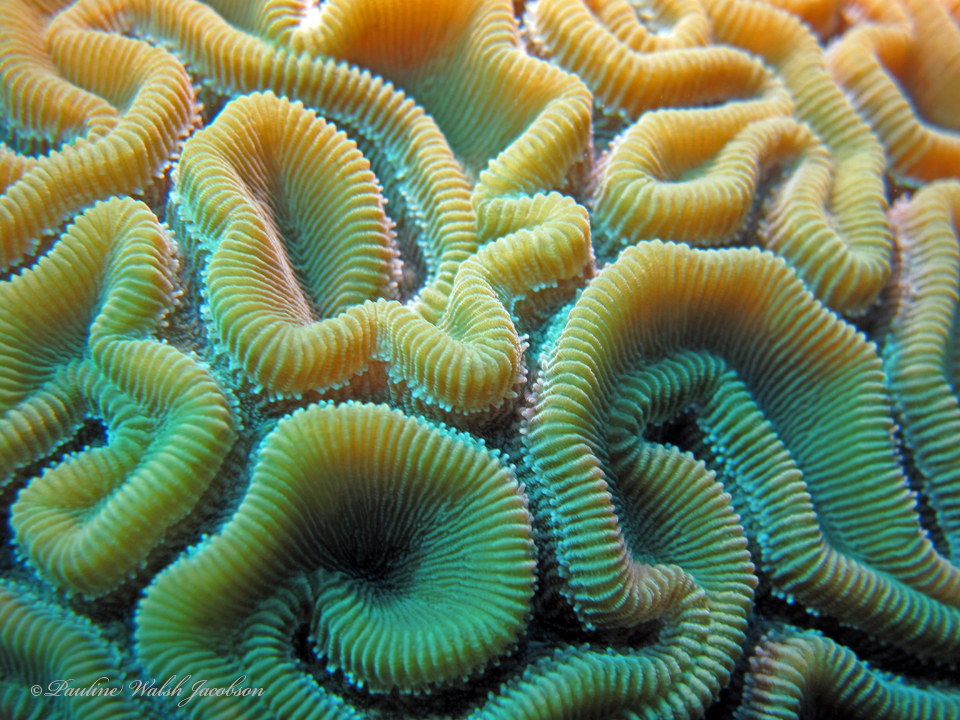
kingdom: Animalia
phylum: Cnidaria
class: Anthozoa
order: Scleractinia
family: Faviidae
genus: Diploria
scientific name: Diploria labyrinthiformis
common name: Grooved brain coral
